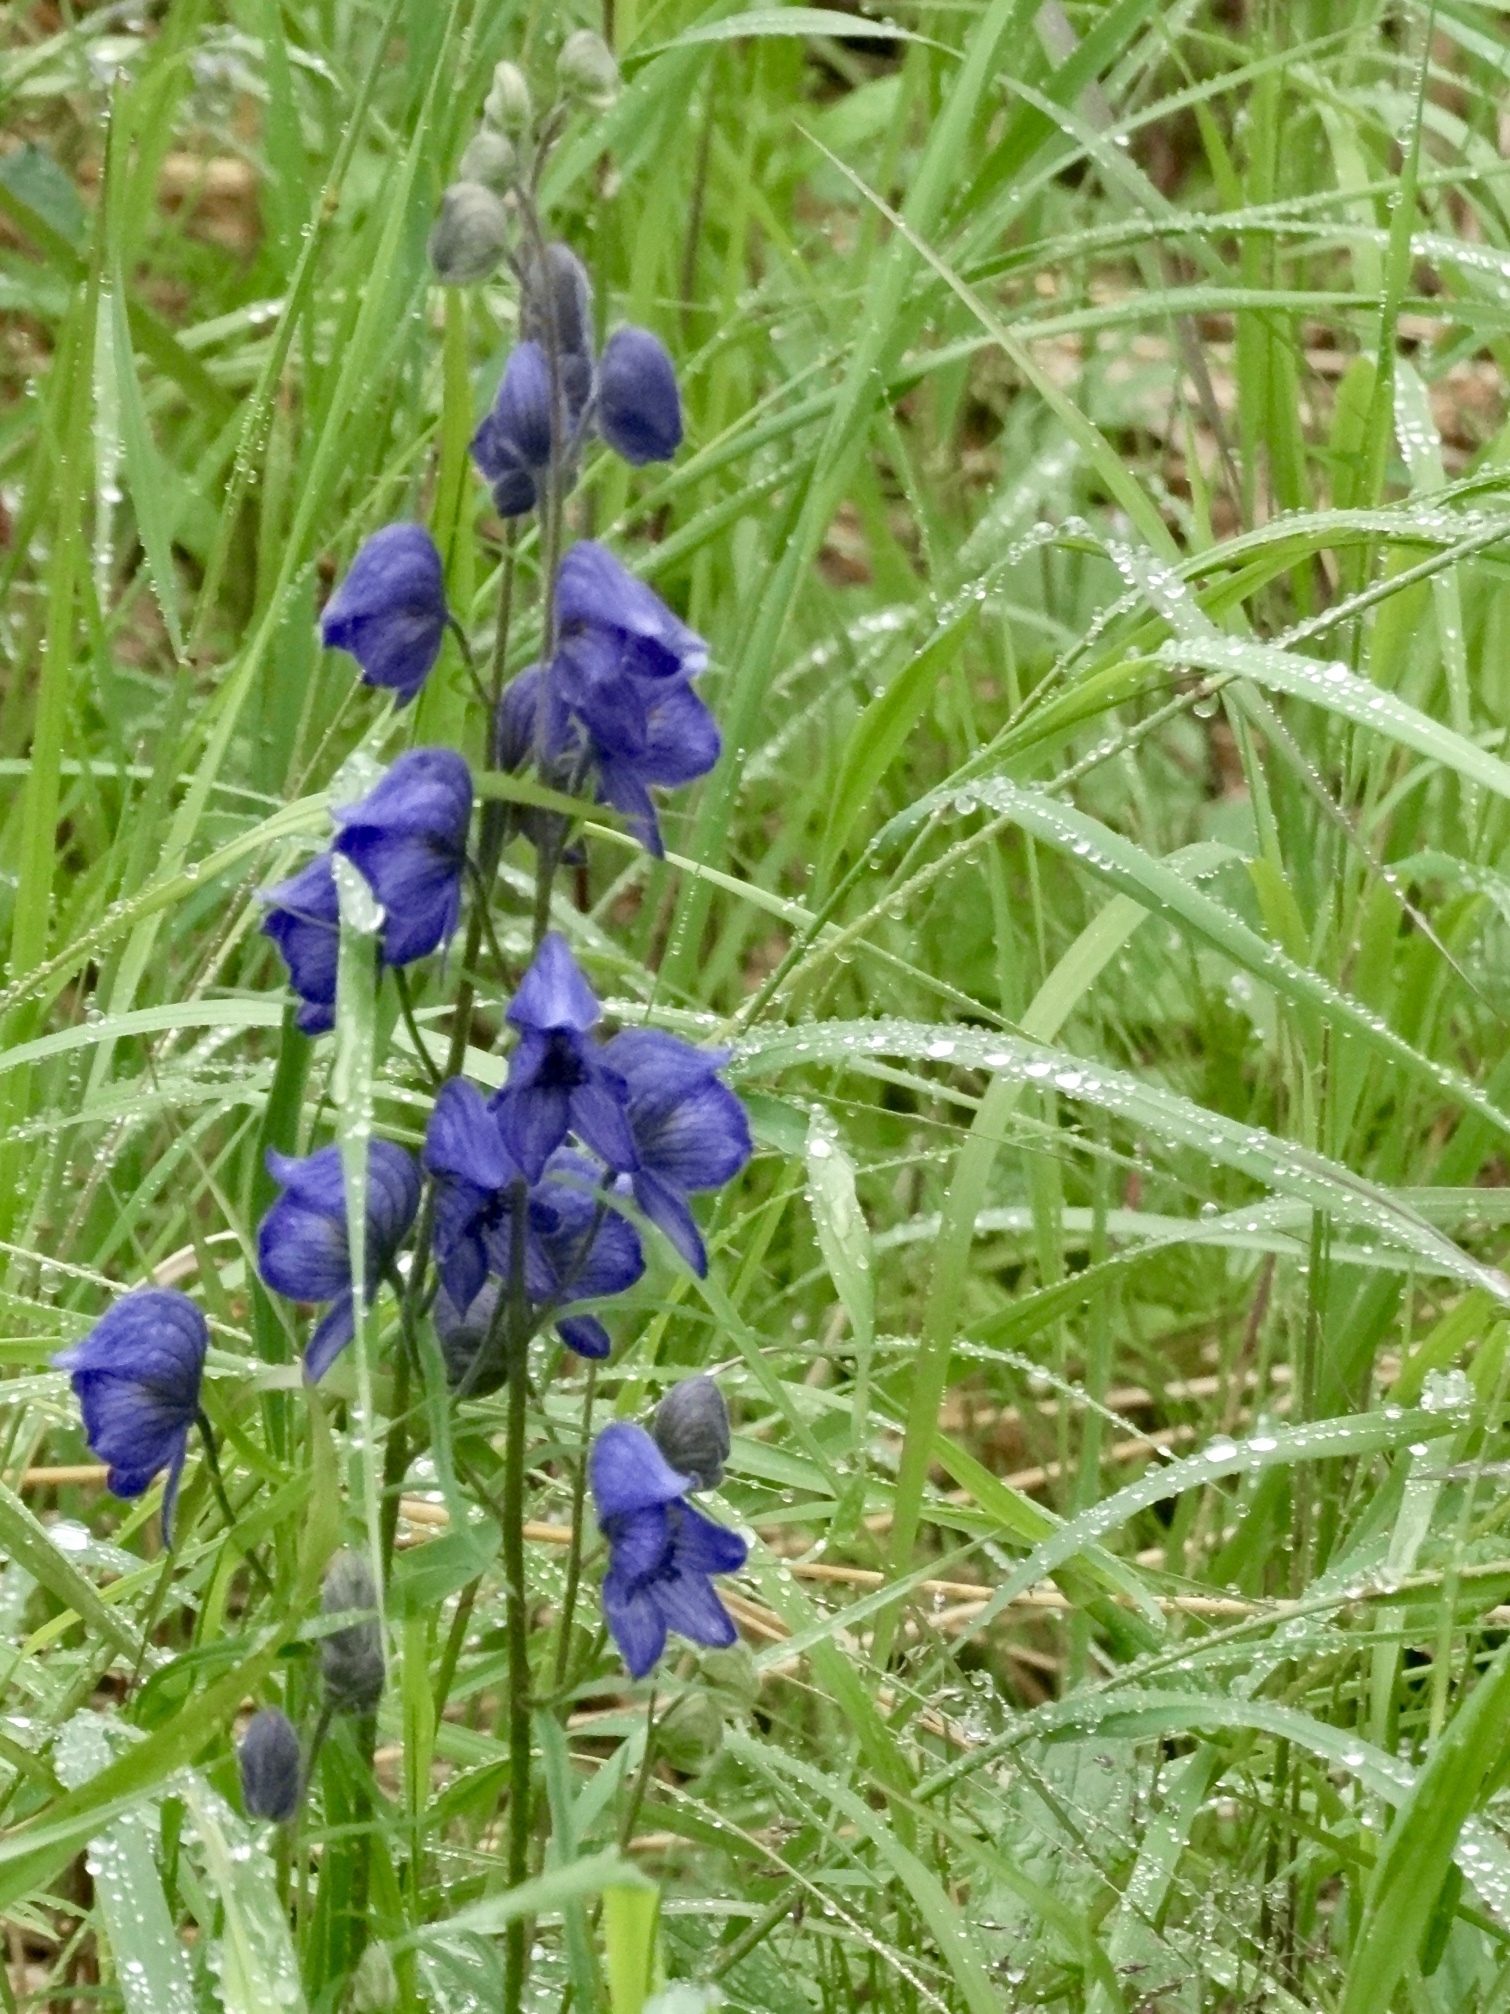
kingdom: Plantae
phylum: Tracheophyta
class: Magnoliopsida
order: Ranunculales
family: Ranunculaceae
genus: Aconitum
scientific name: Aconitum delphiniifolium
